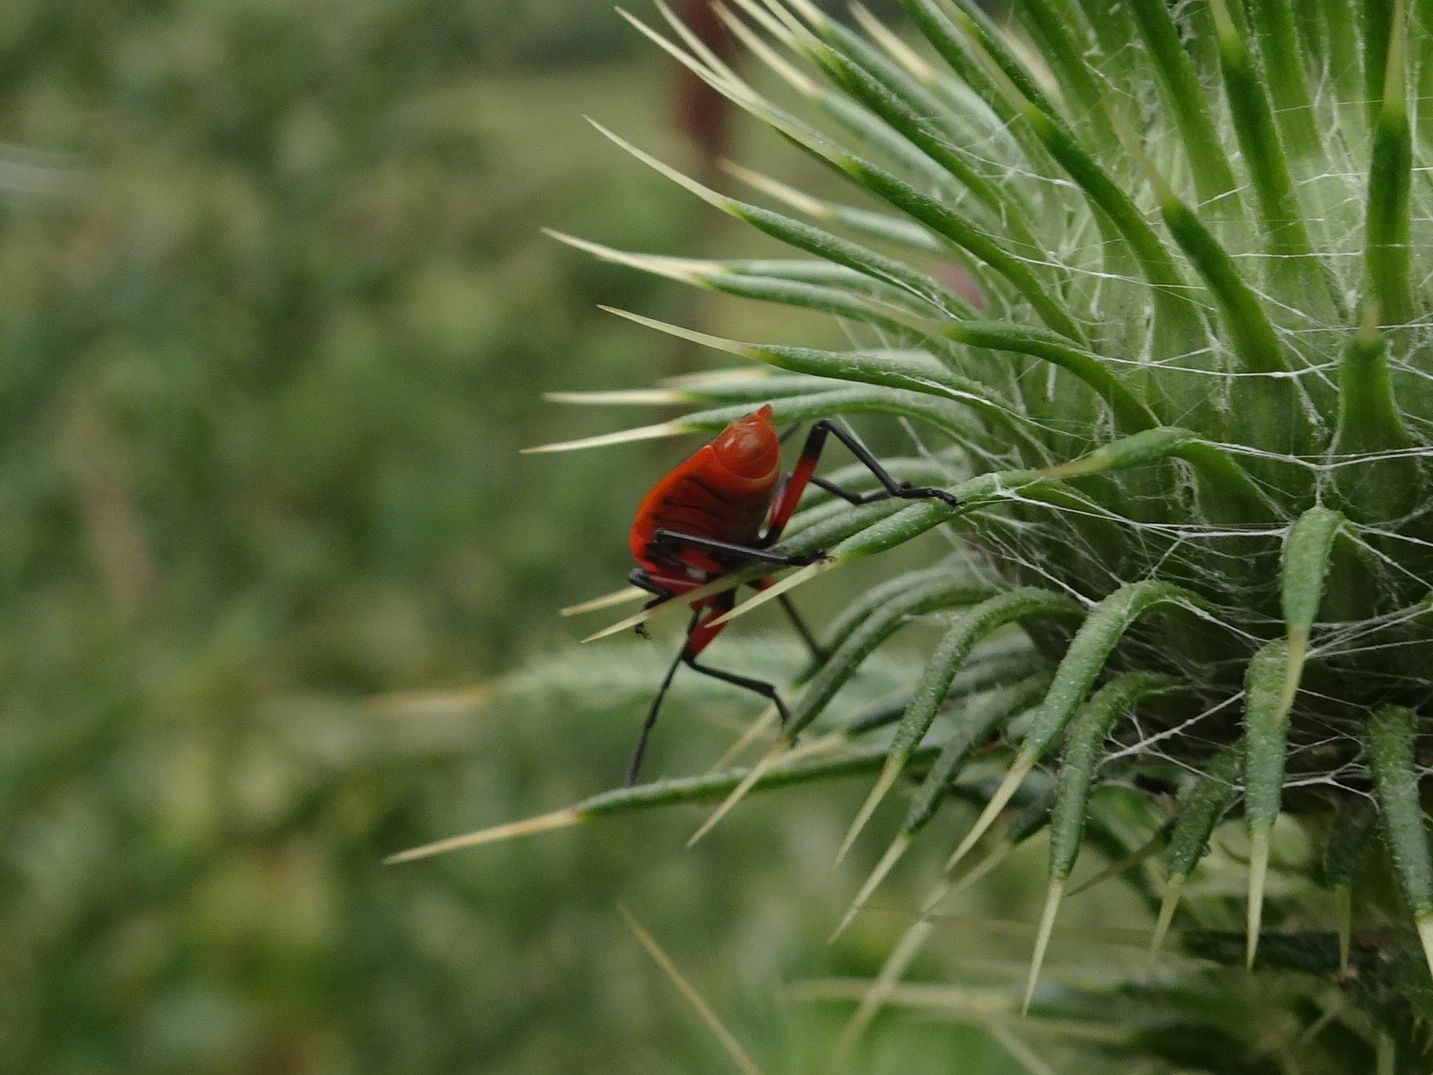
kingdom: Animalia
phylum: Arthropoda
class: Insecta
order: Hemiptera
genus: Cenaeus
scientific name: Cenaeus
